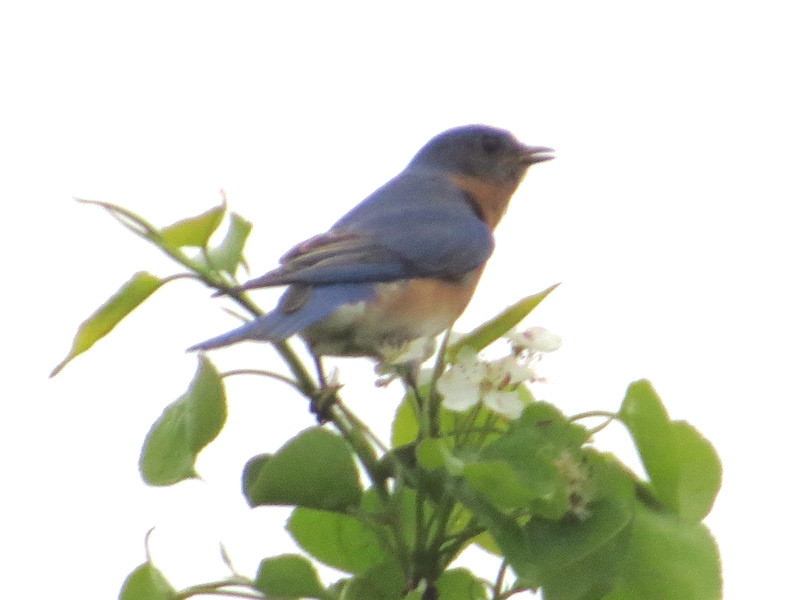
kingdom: Animalia
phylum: Chordata
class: Aves
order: Passeriformes
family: Turdidae
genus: Sialia
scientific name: Sialia sialis
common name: Eastern bluebird
